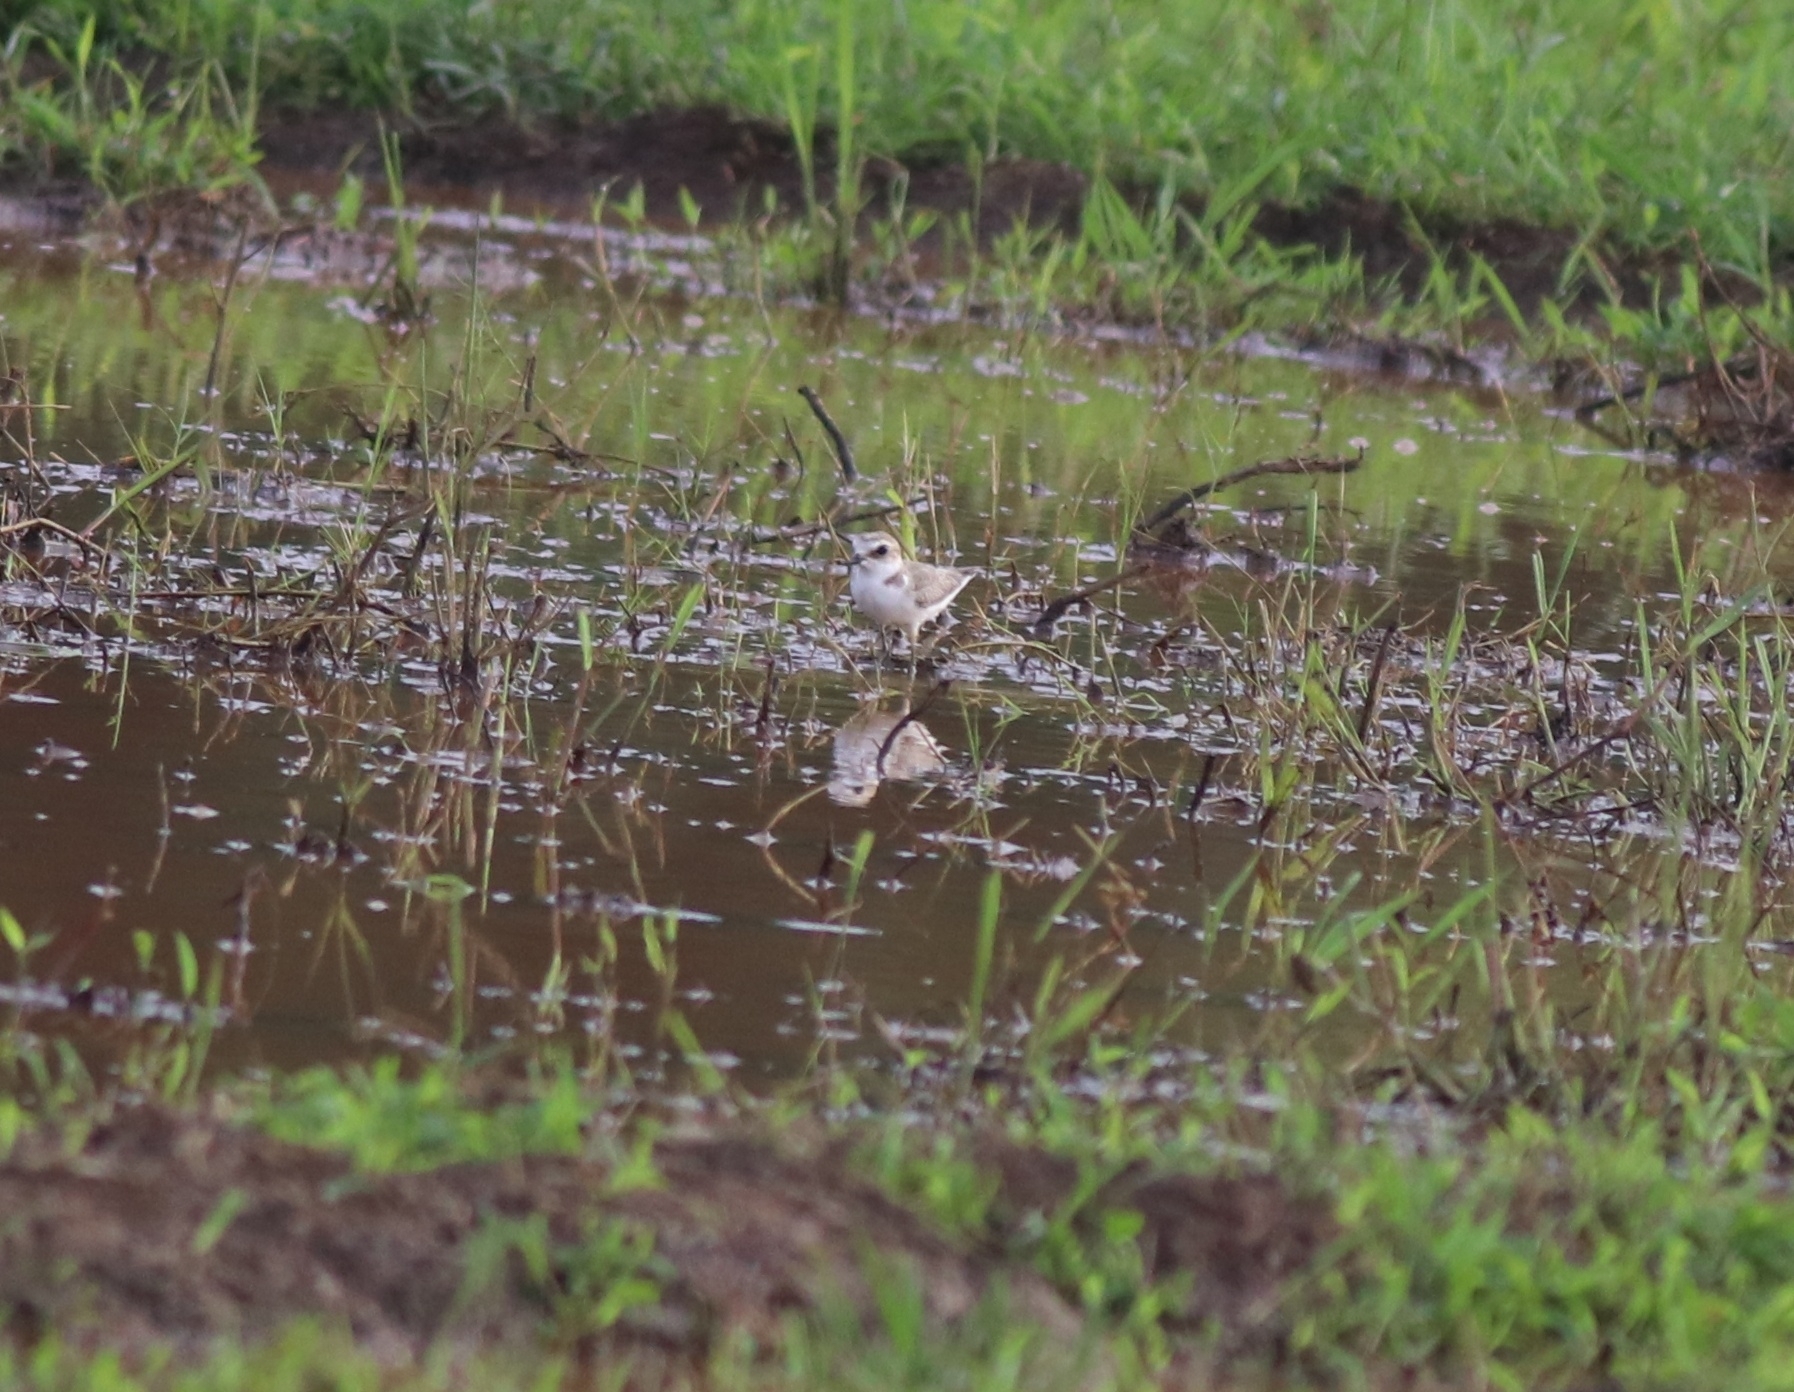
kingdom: Animalia
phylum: Chordata
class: Aves
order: Charadriiformes
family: Charadriidae
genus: Anarhynchus
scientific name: Anarhynchus
